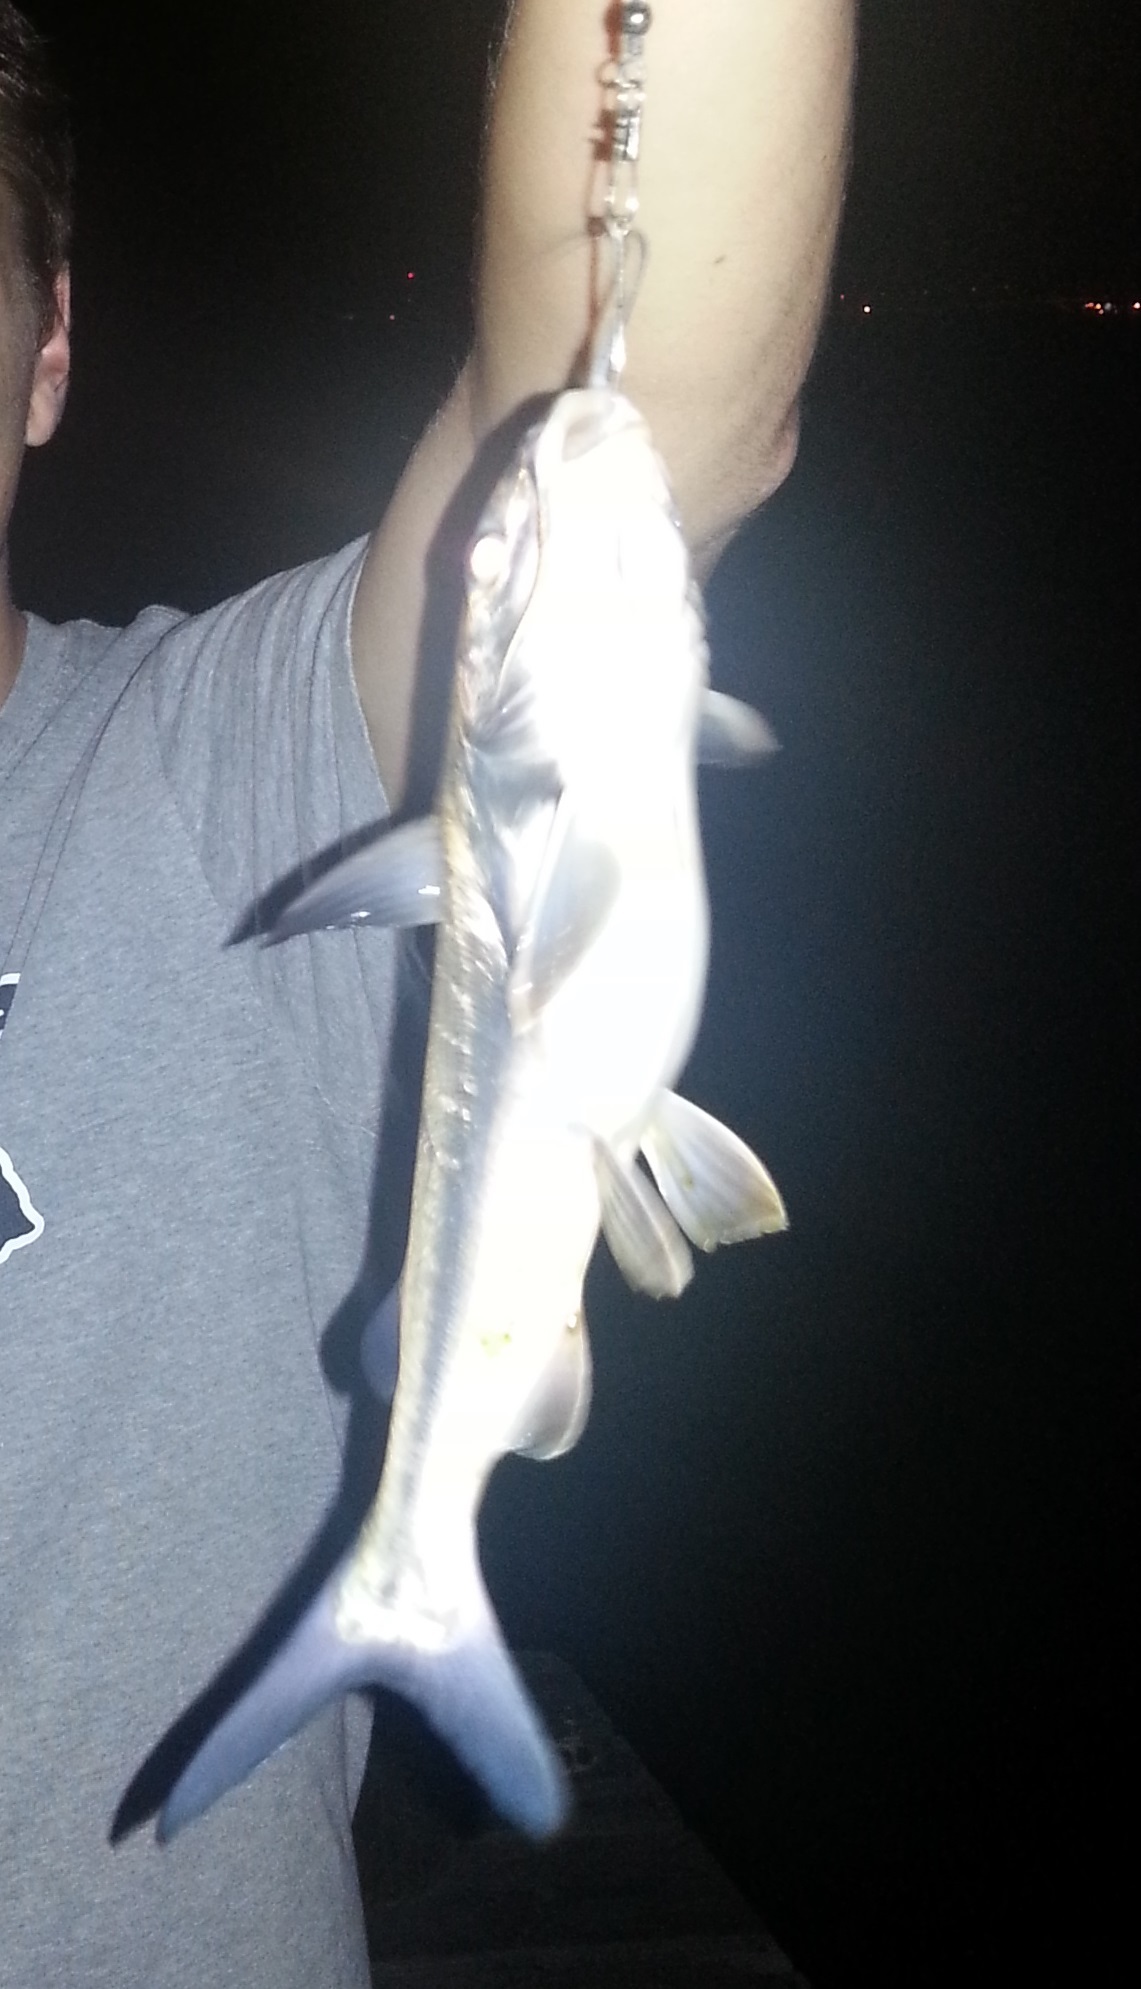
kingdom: Animalia
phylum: Chordata
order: Siluriformes
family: Ariidae
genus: Ariopsis
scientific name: Ariopsis felis
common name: Hardhead catfish
